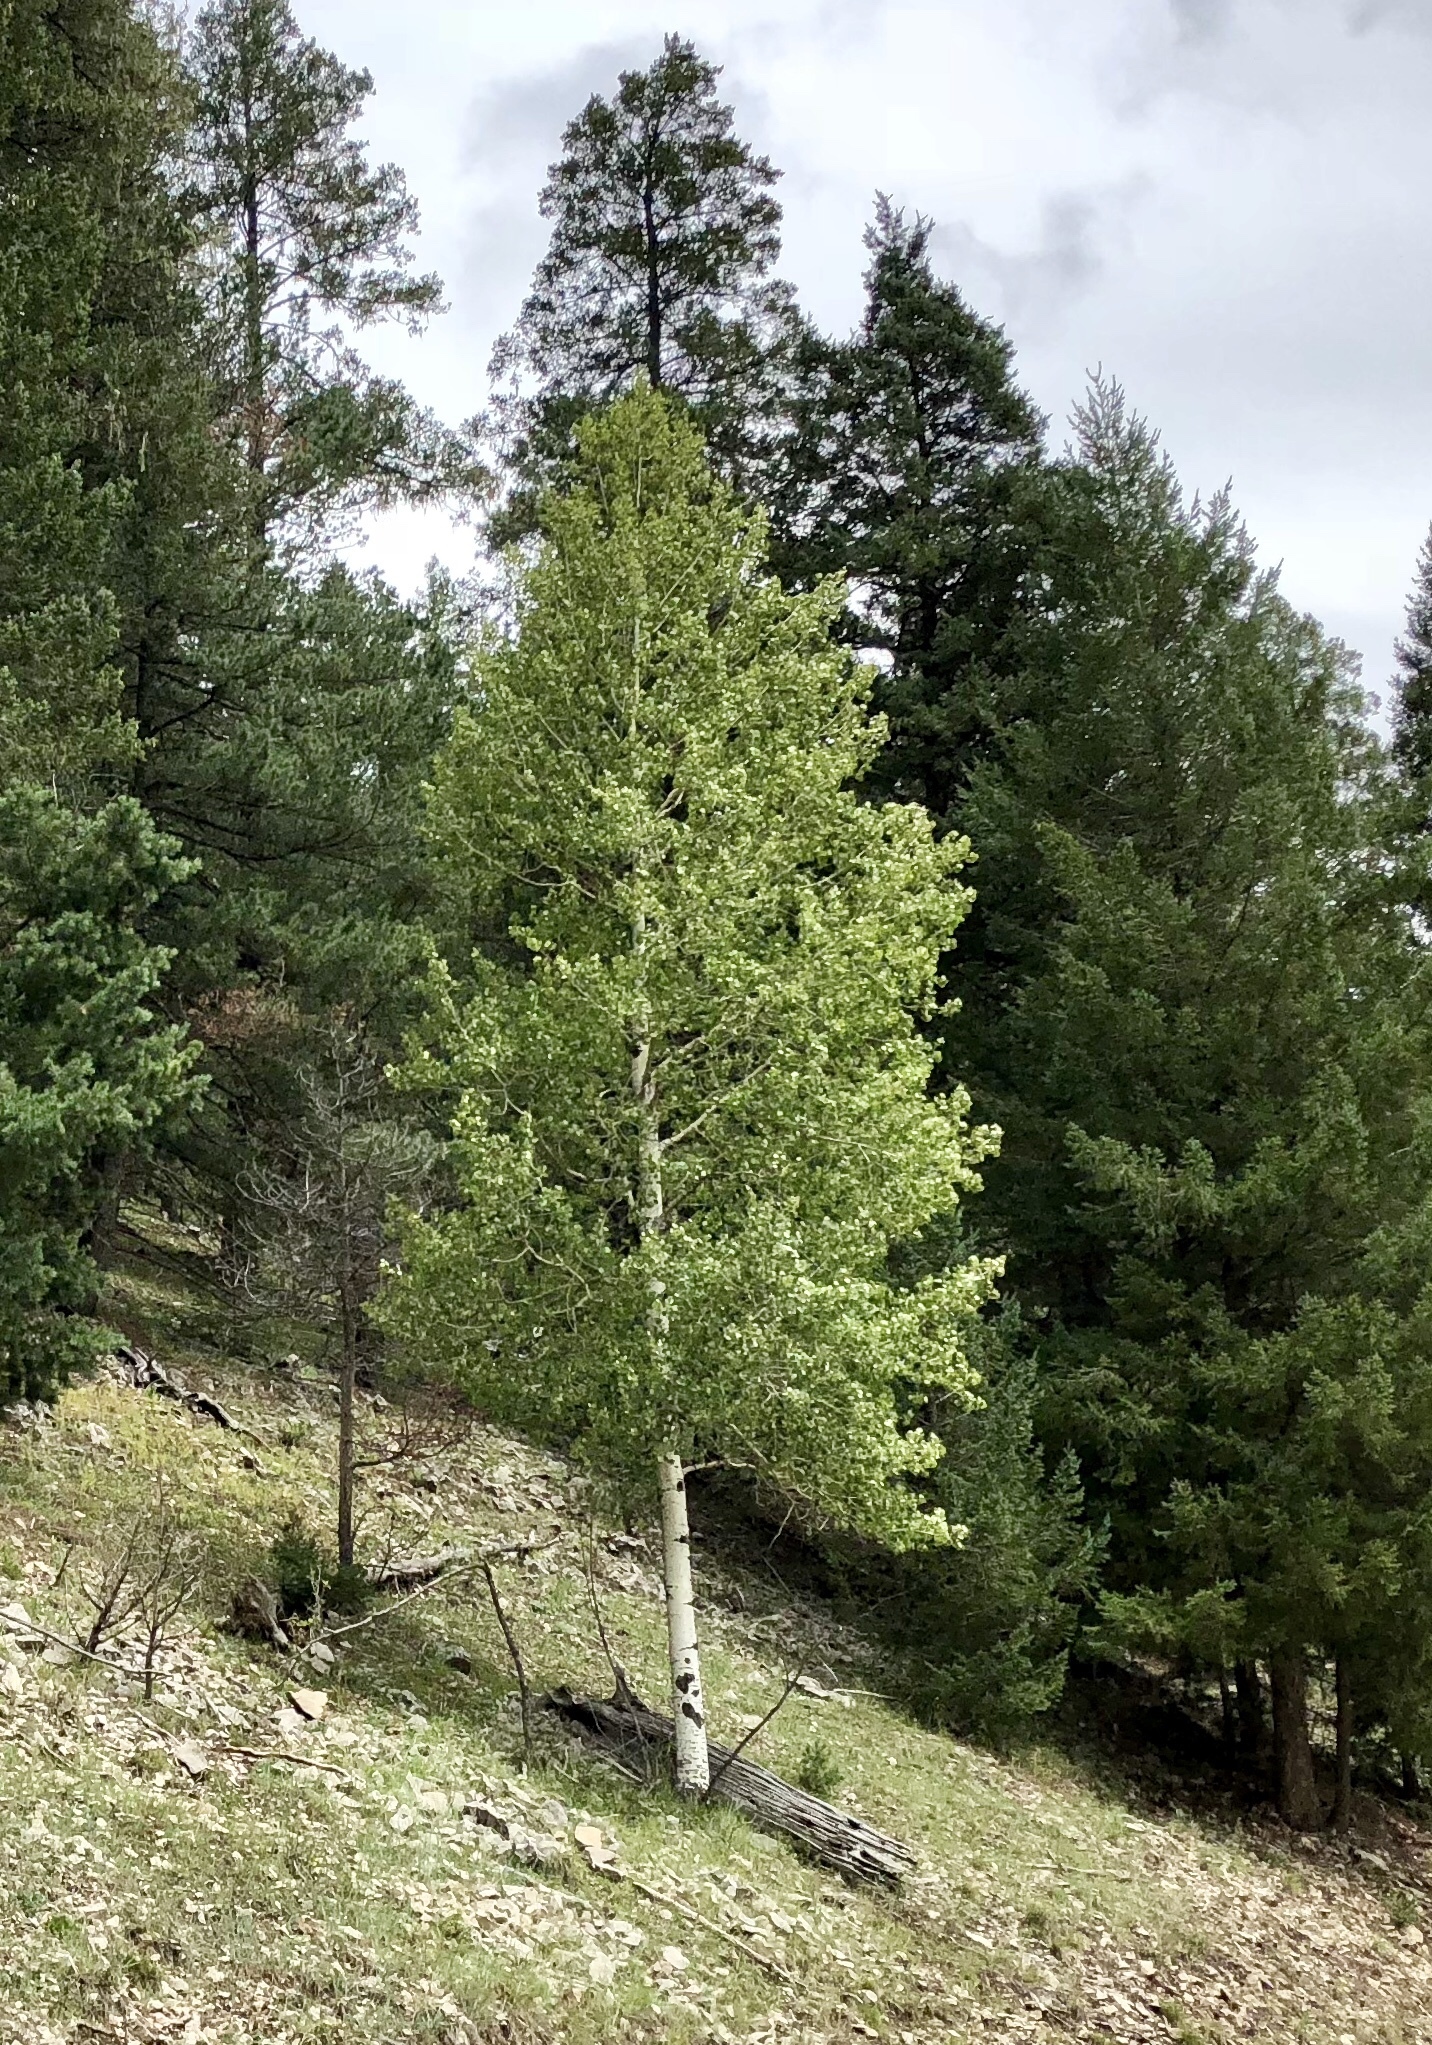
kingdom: Plantae
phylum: Tracheophyta
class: Magnoliopsida
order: Malpighiales
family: Salicaceae
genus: Populus
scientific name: Populus tremuloides
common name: Quaking aspen
